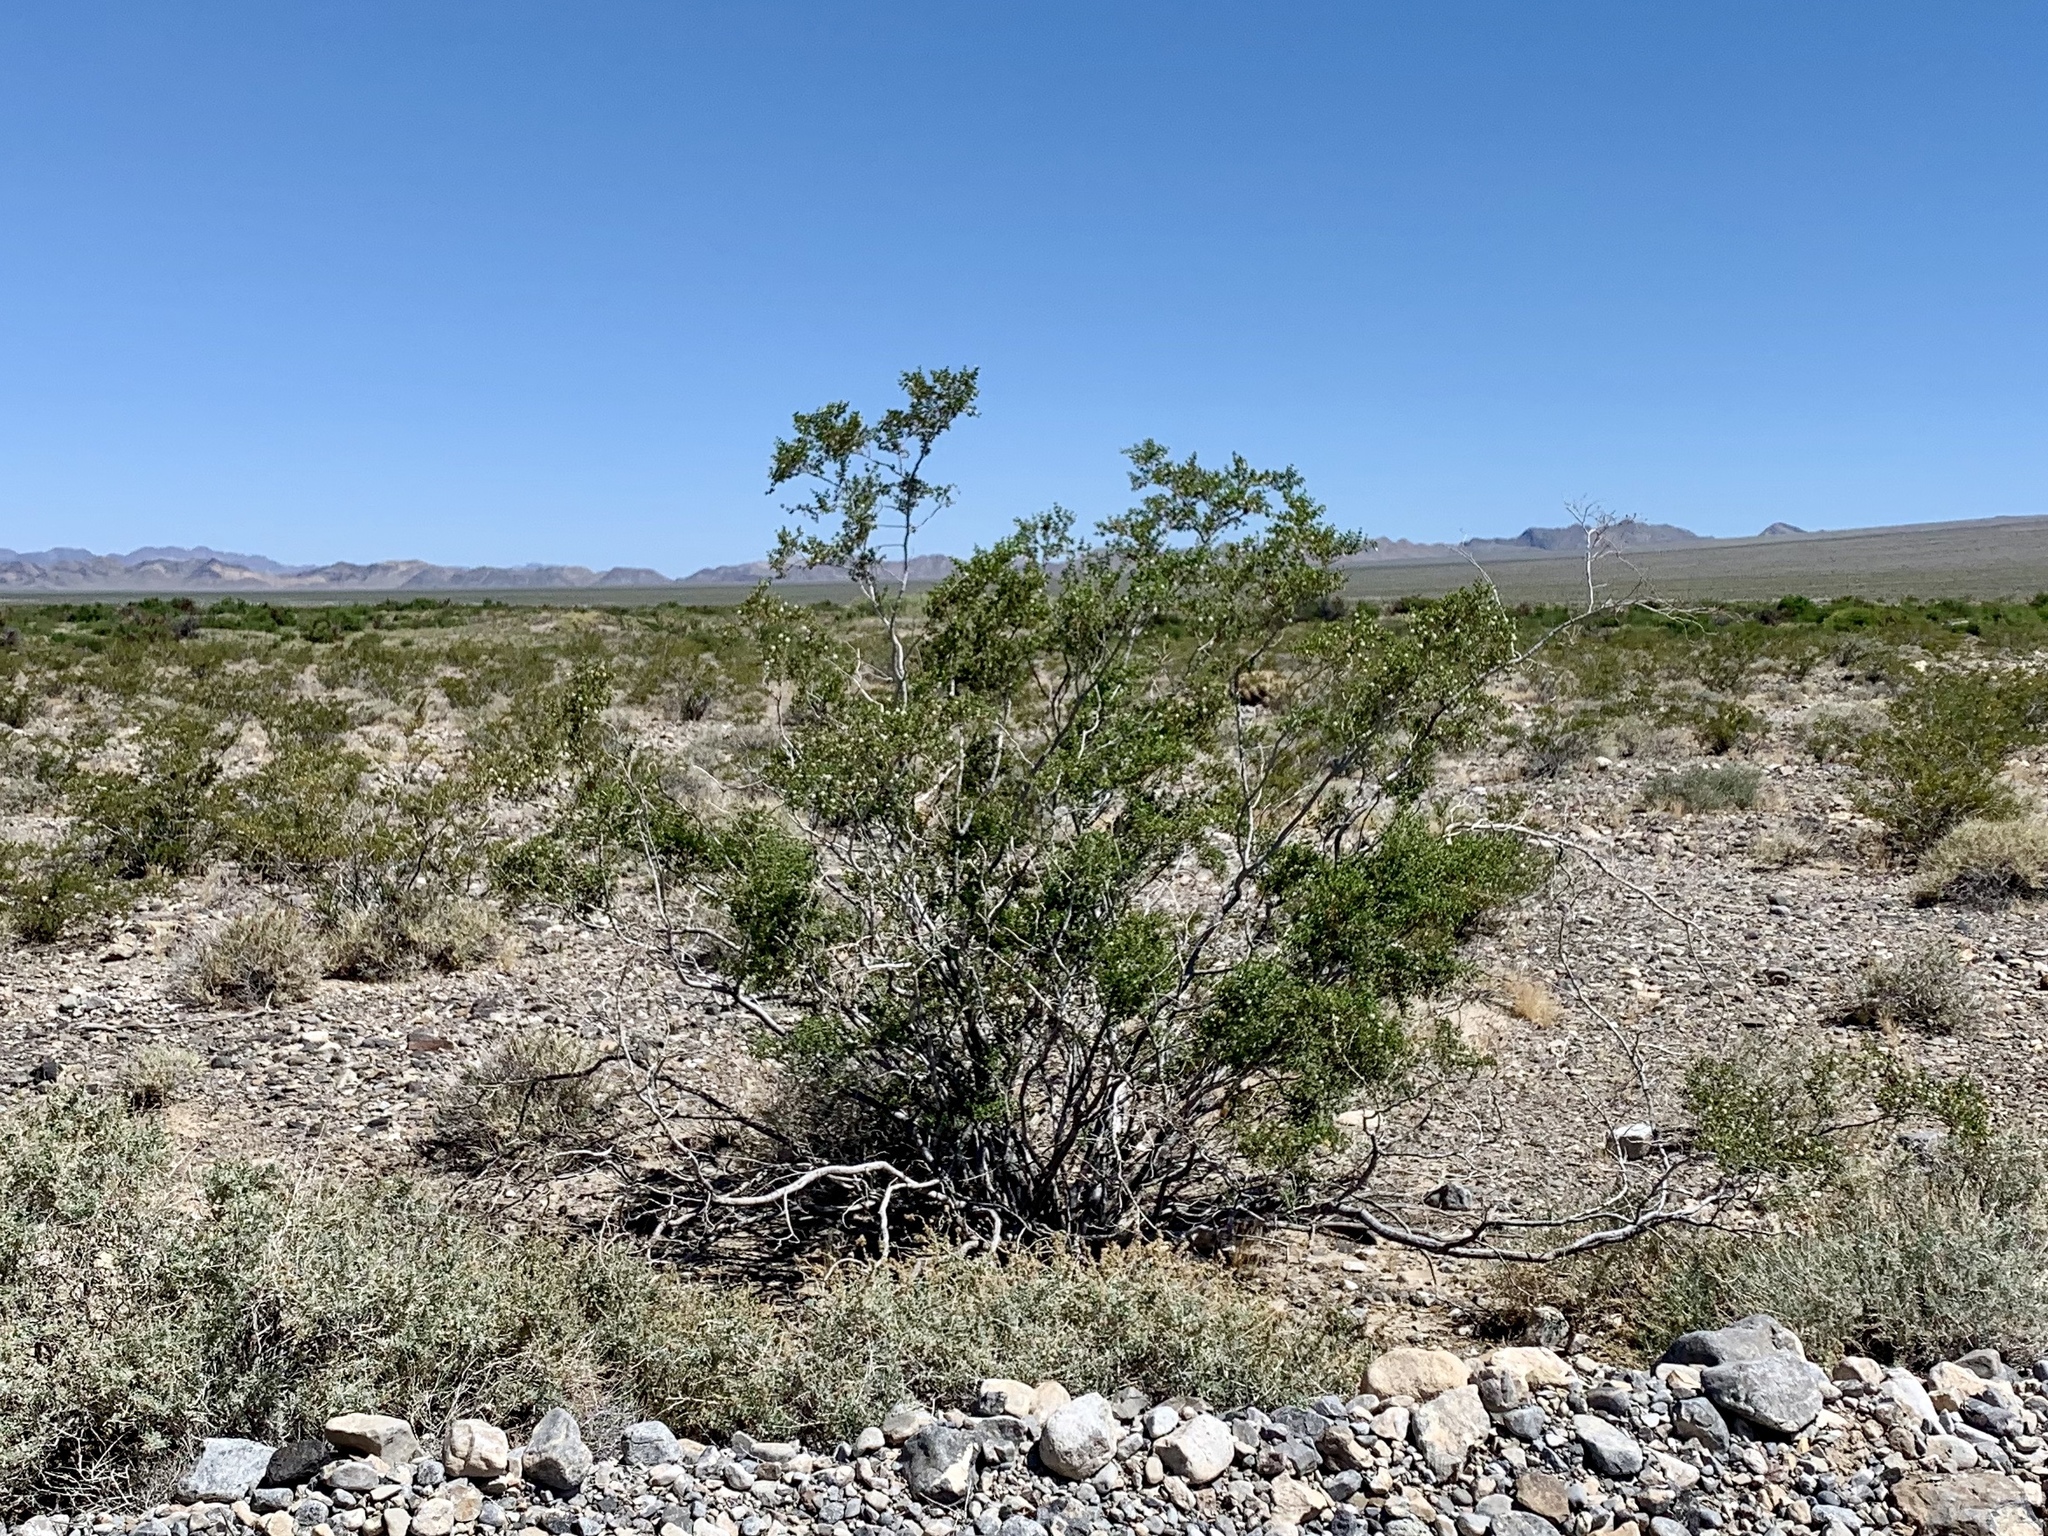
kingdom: Plantae
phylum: Tracheophyta
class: Magnoliopsida
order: Zygophyllales
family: Zygophyllaceae
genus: Larrea
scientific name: Larrea tridentata
